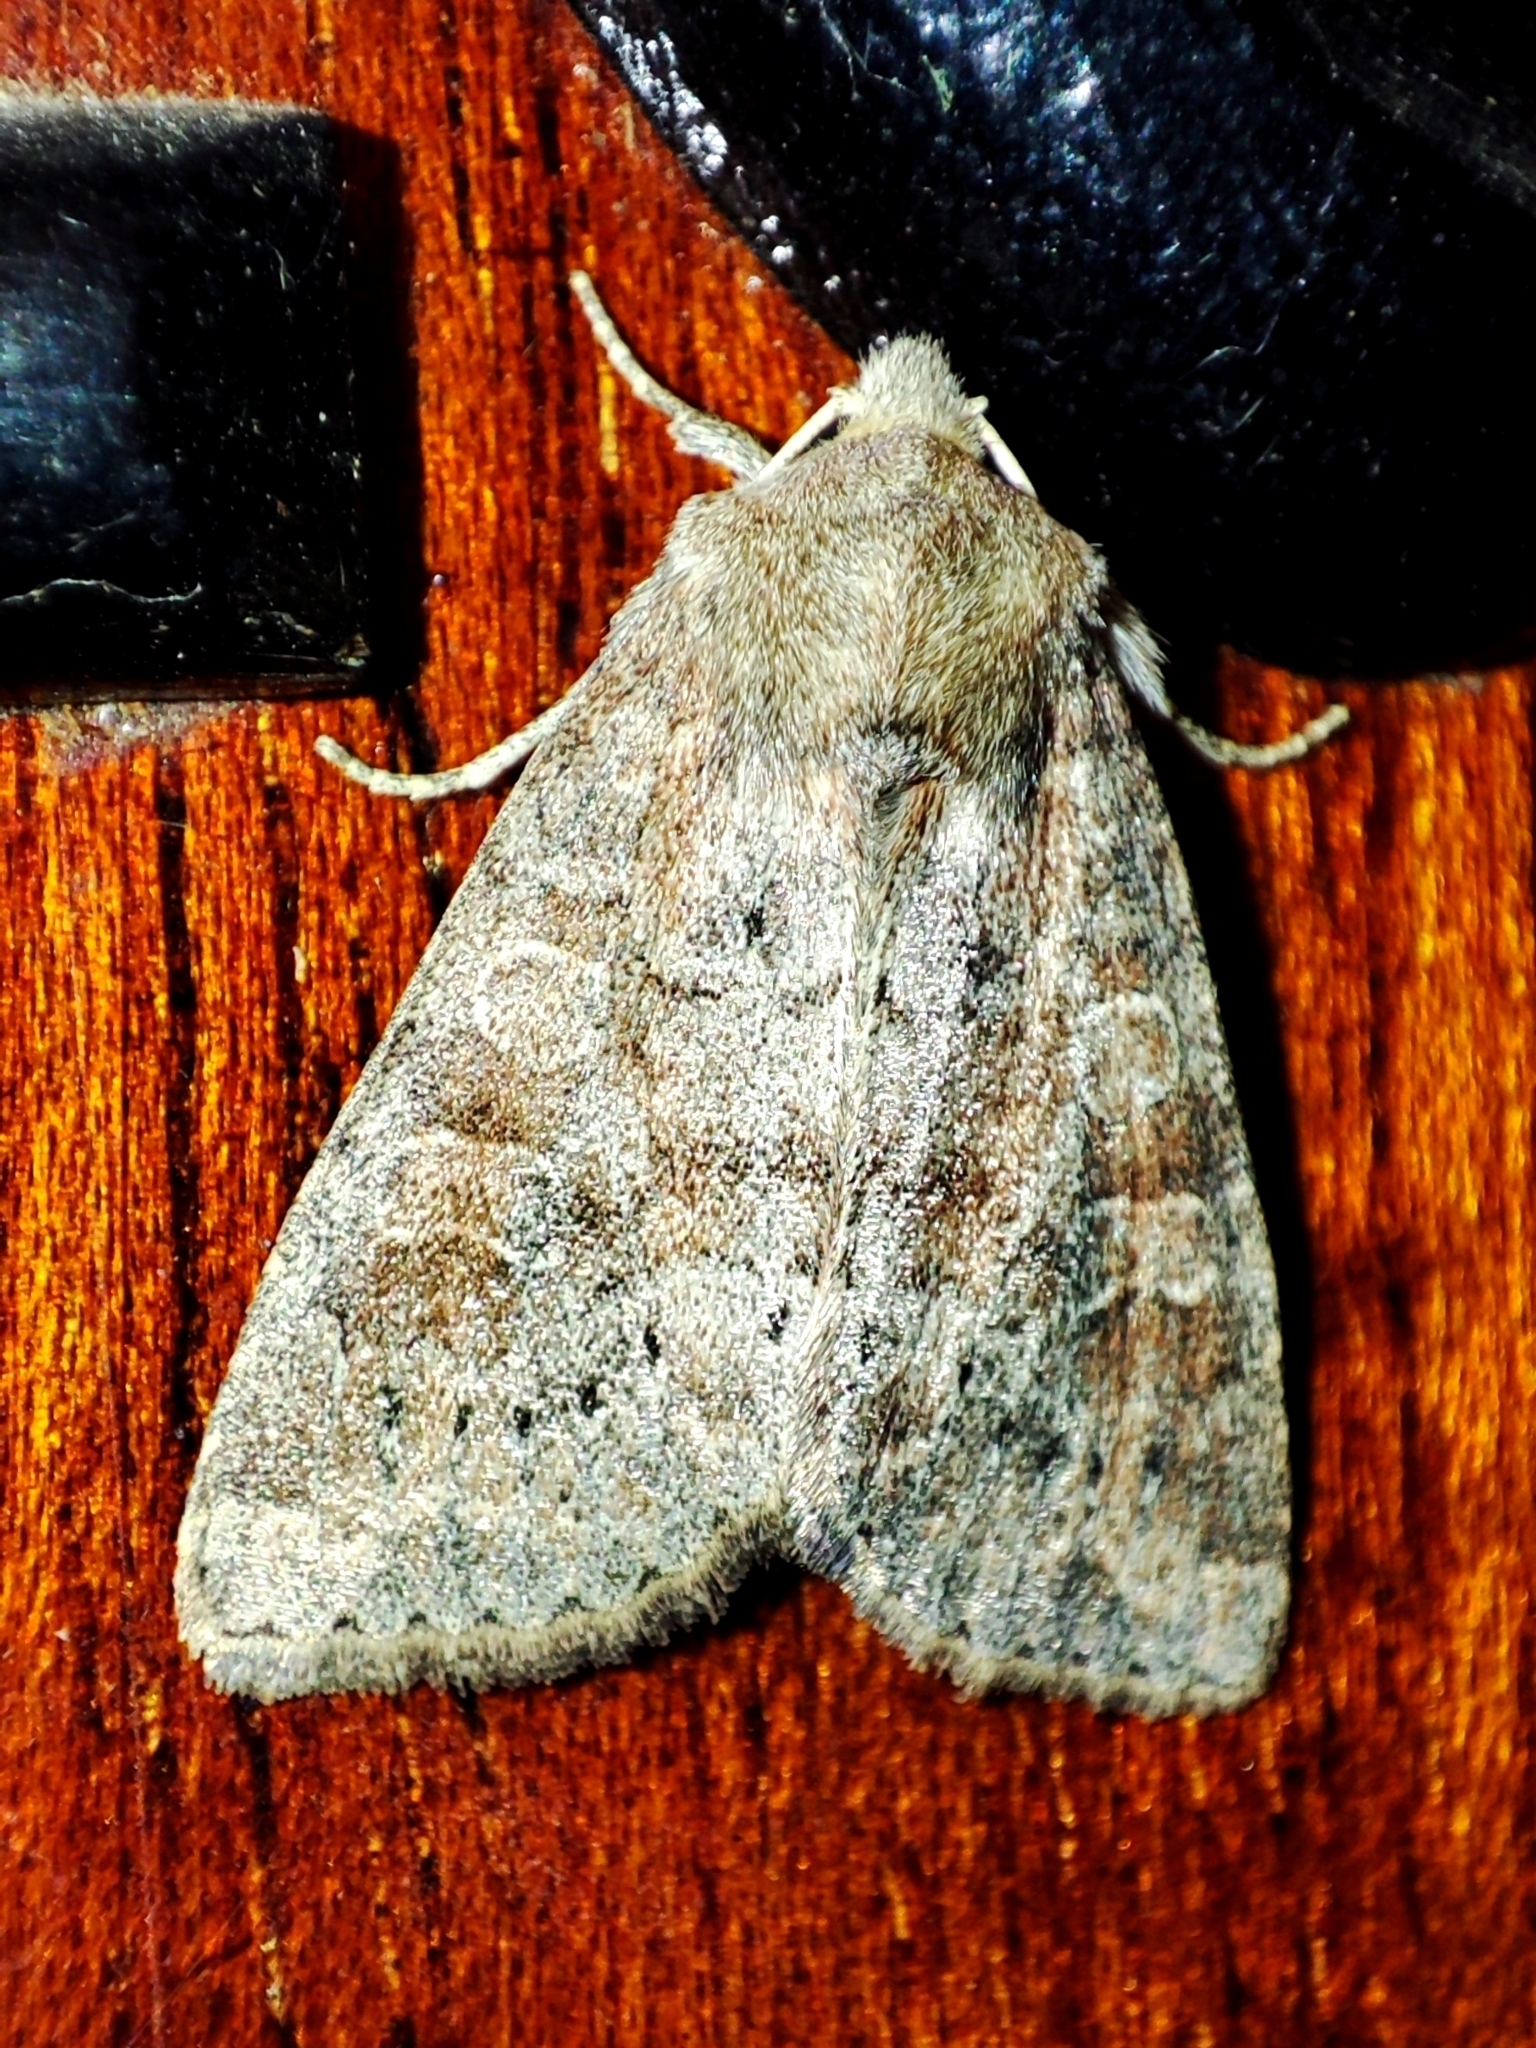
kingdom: Animalia
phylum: Arthropoda
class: Insecta
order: Lepidoptera
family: Noctuidae
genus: Parastichtis
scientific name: Parastichtis suspecta
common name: Suspected
